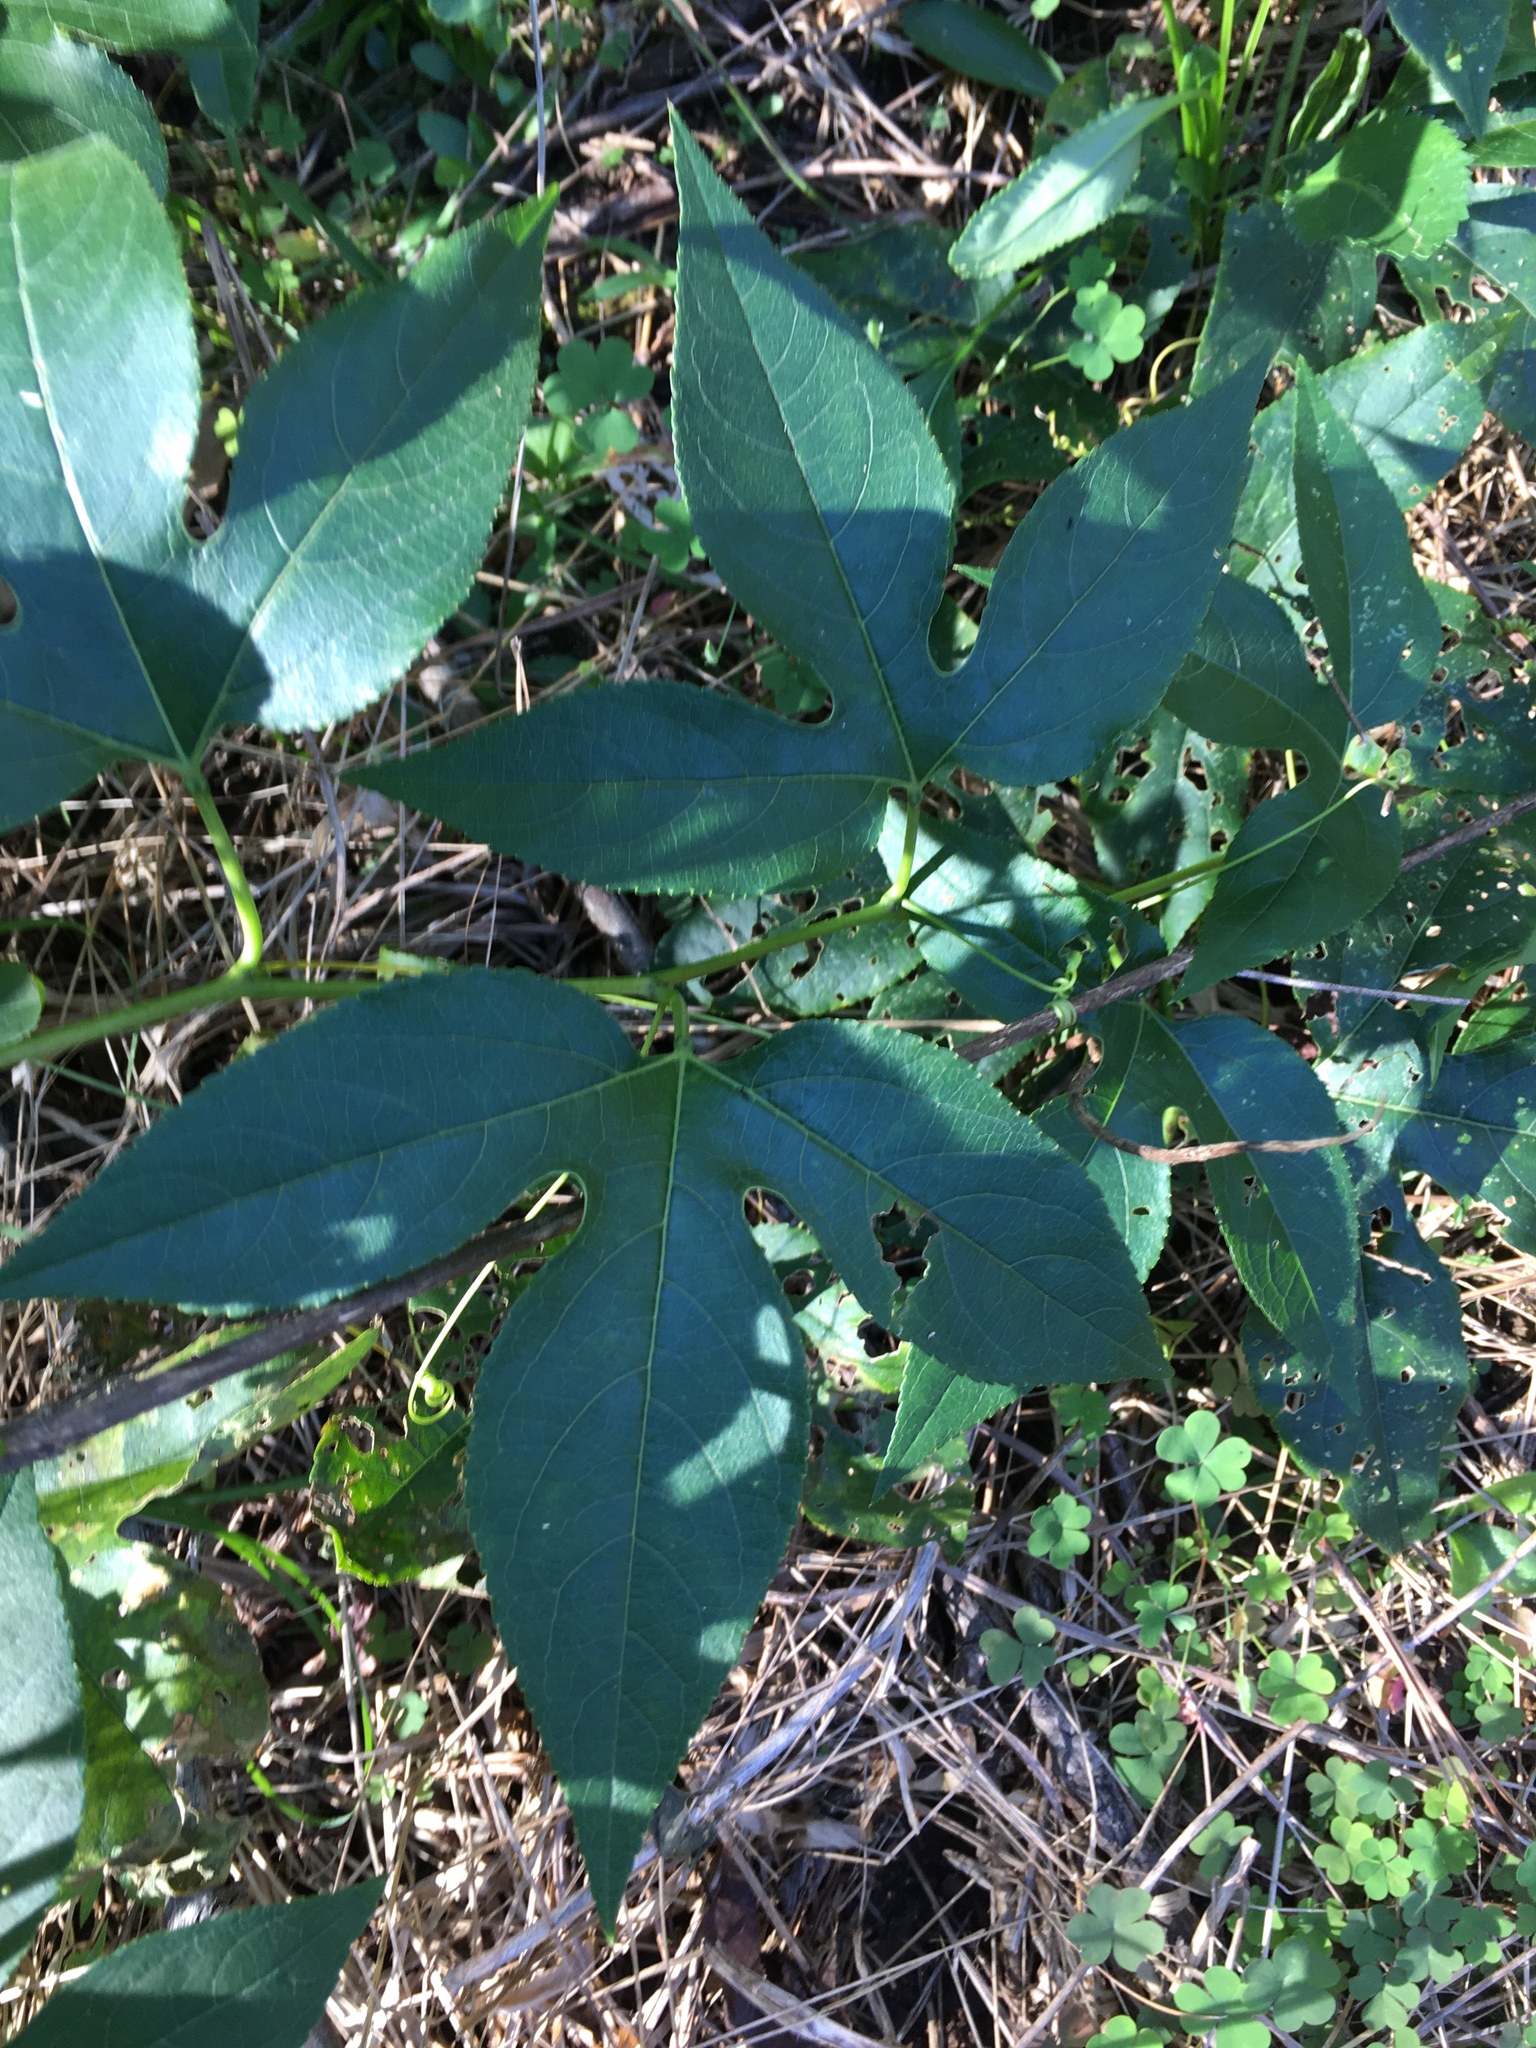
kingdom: Plantae
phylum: Tracheophyta
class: Magnoliopsida
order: Malpighiales
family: Passifloraceae
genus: Passiflora
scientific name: Passiflora incarnata
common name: Apricot-vine
